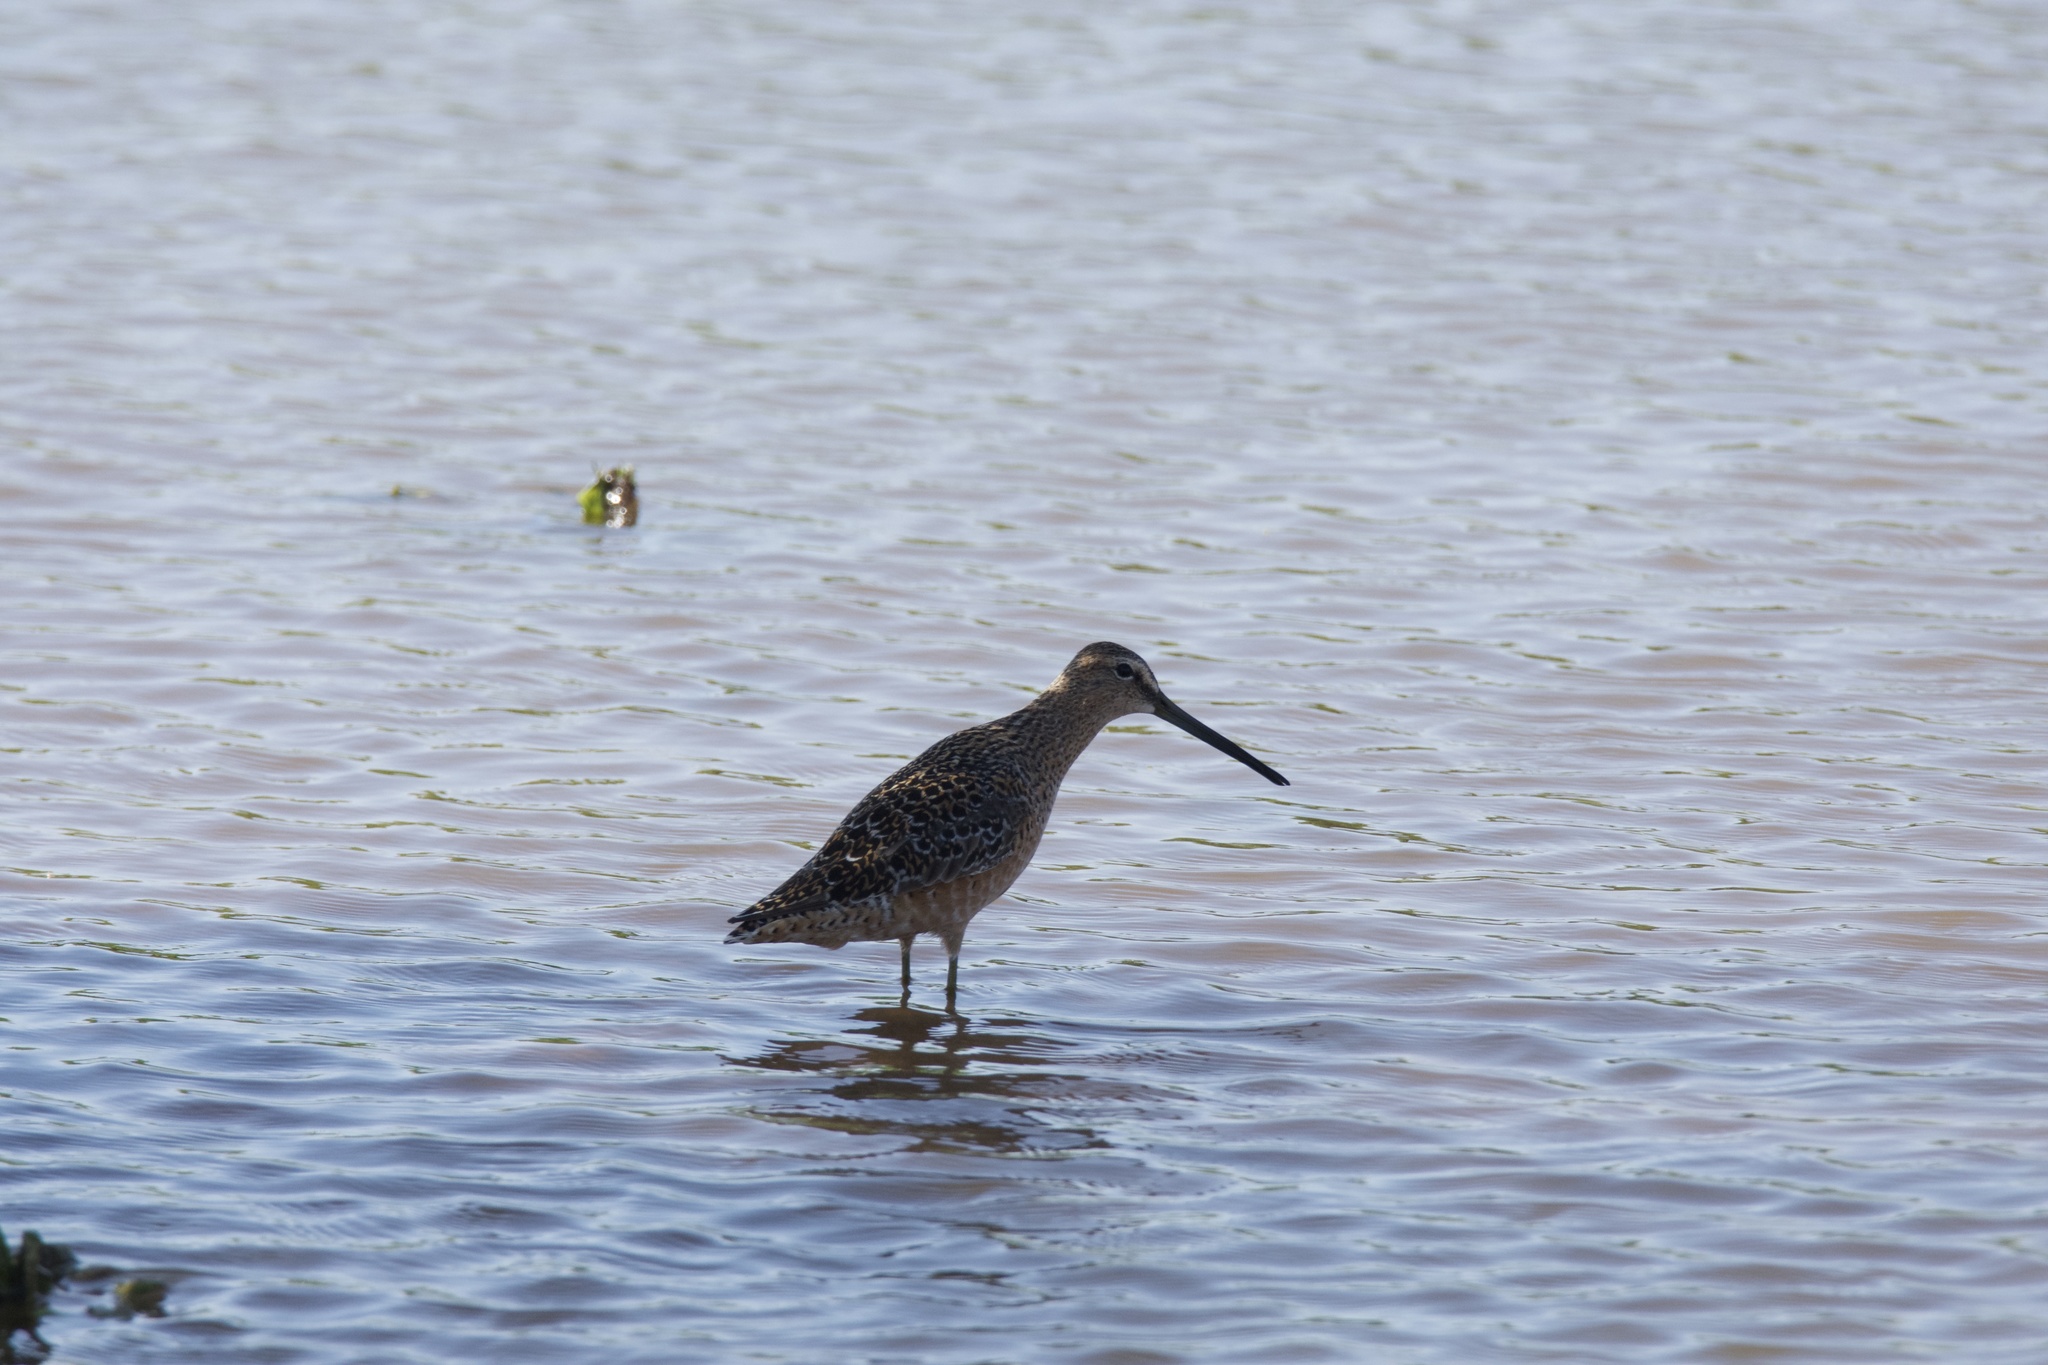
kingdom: Animalia
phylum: Chordata
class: Aves
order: Charadriiformes
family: Scolopacidae
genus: Limnodromus
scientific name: Limnodromus scolopaceus
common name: Long-billed dowitcher
